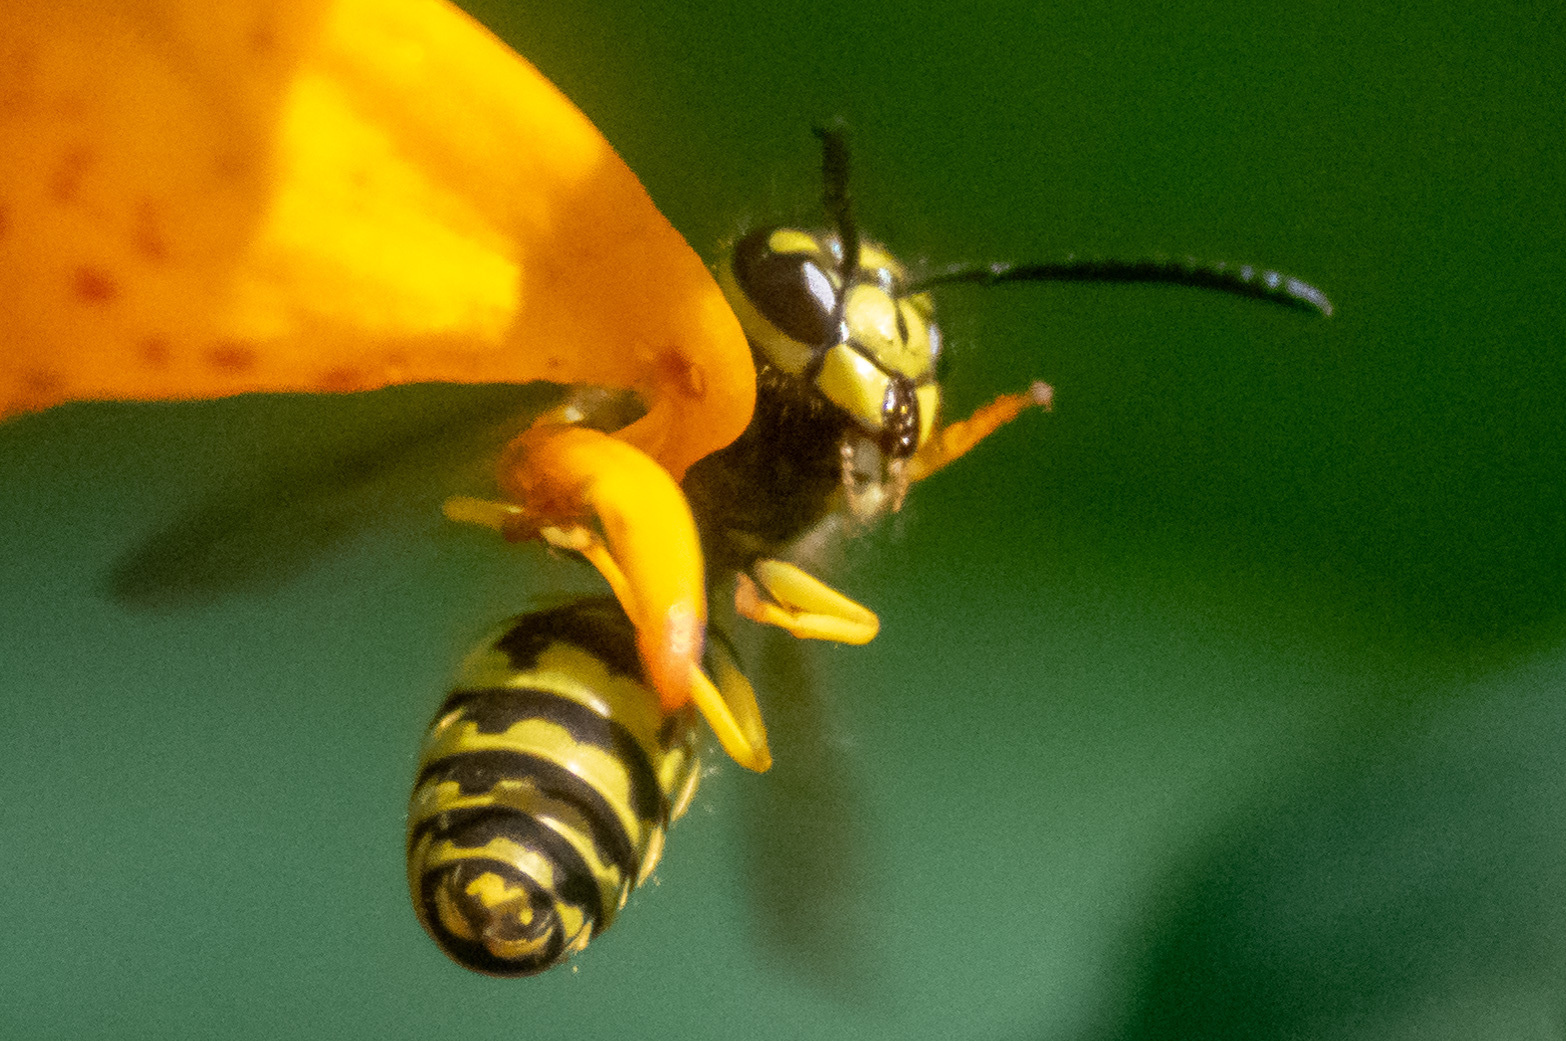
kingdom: Animalia
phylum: Arthropoda
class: Insecta
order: Hymenoptera
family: Vespidae
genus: Vespula
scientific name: Vespula maculifrons
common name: Eastern yellowjacket
